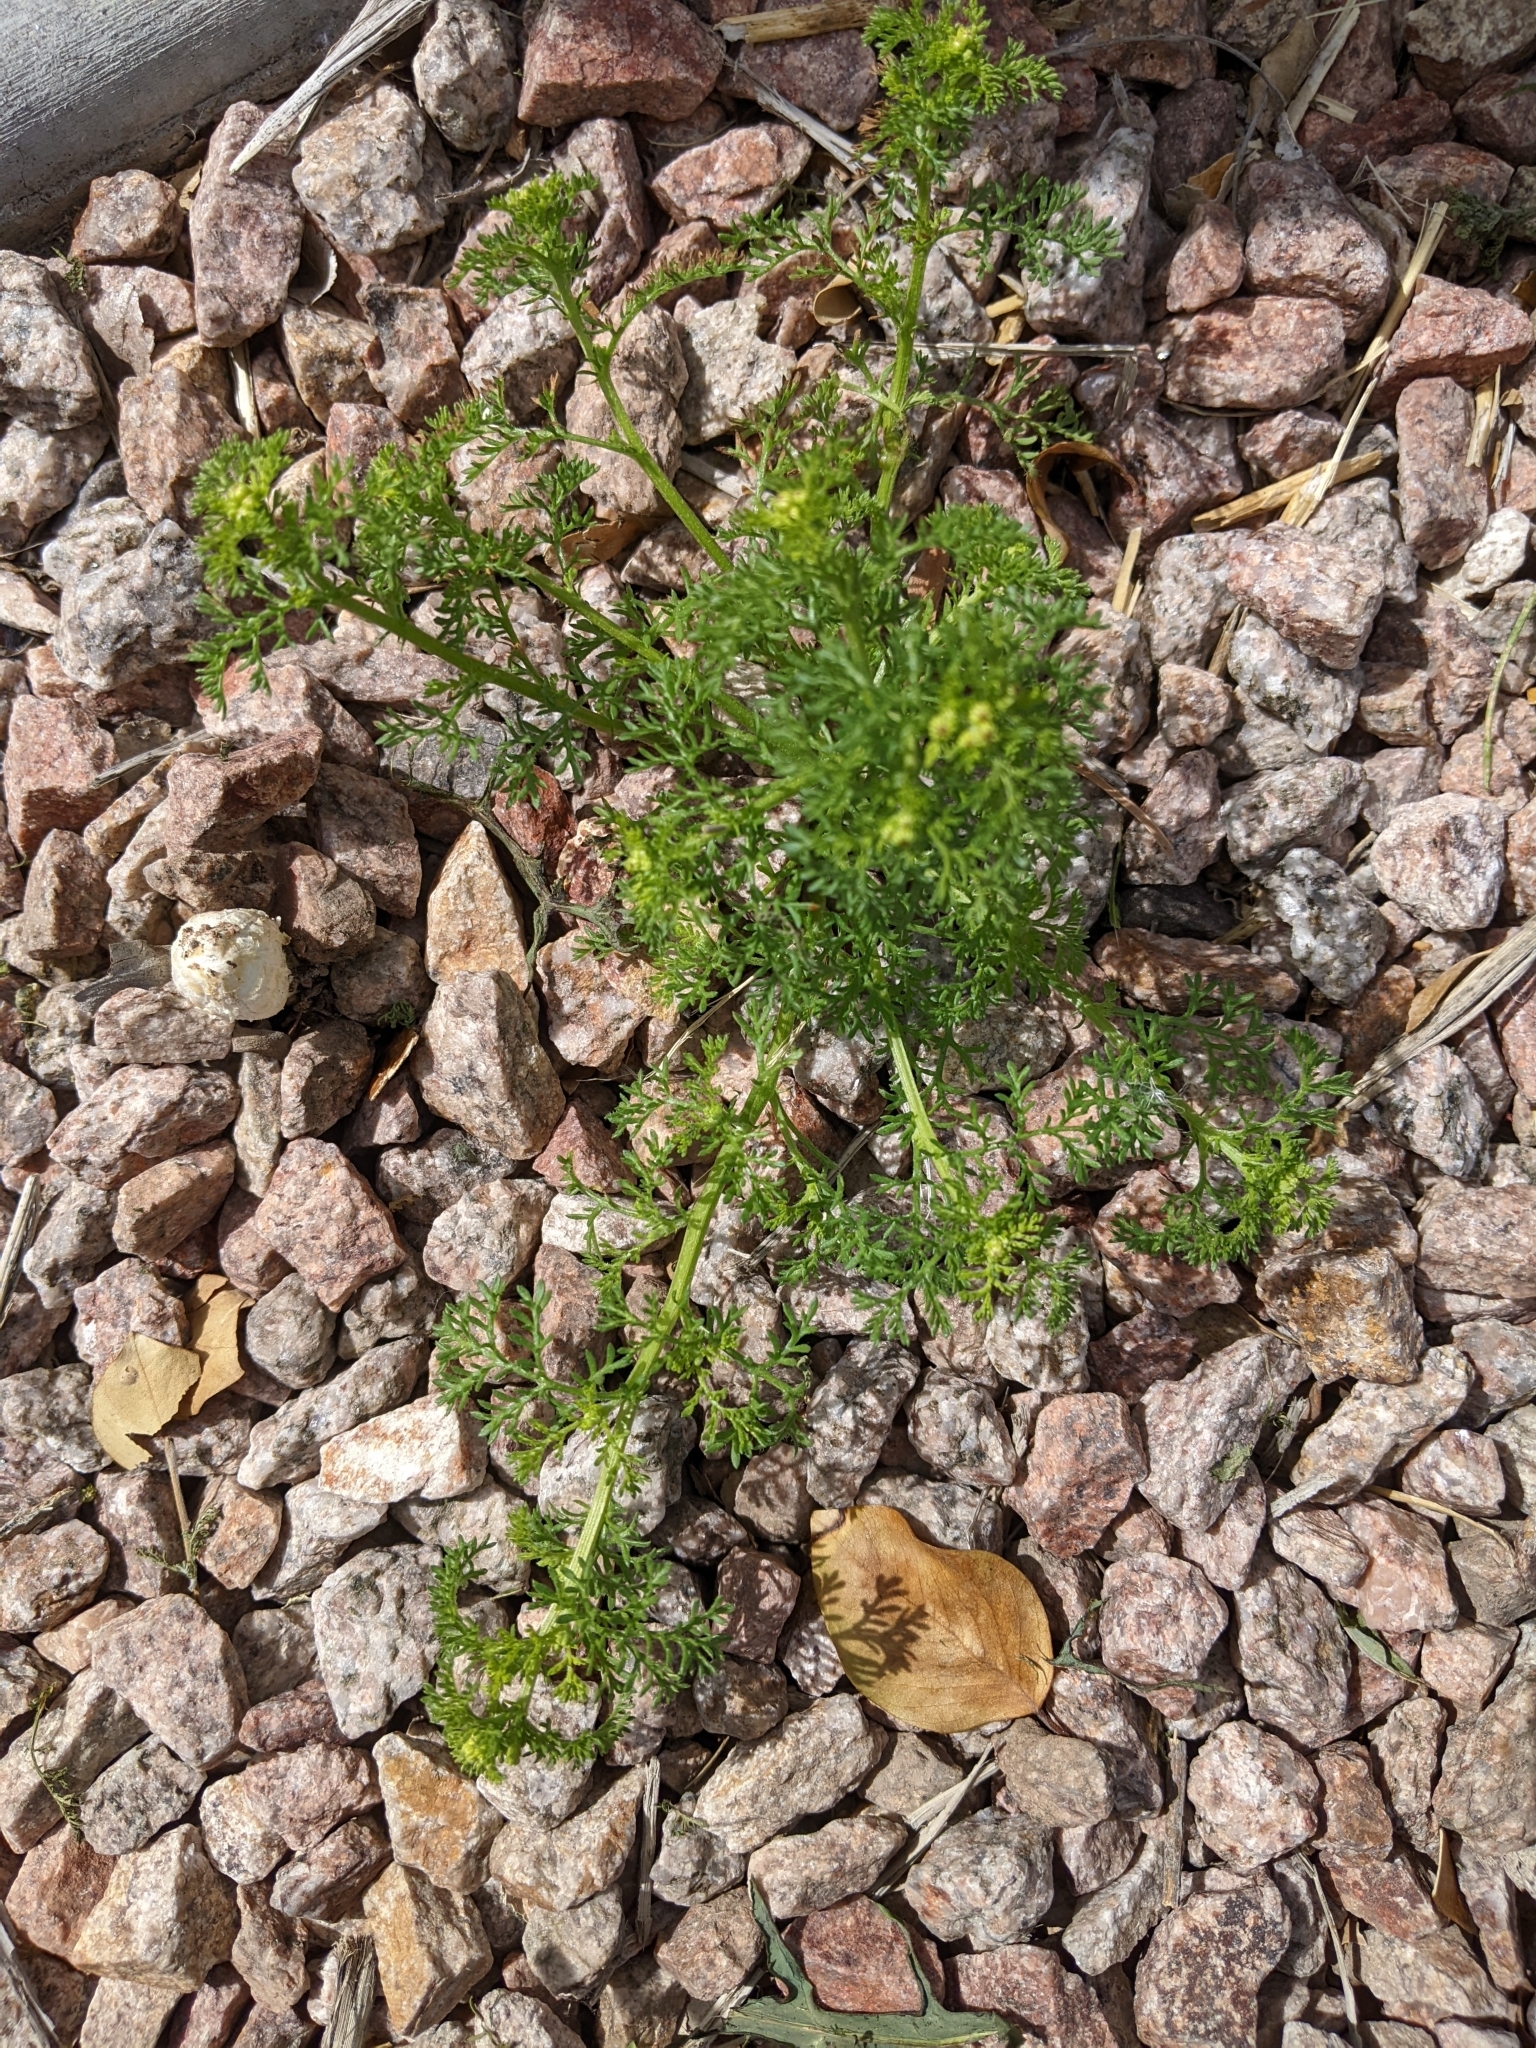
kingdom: Plantae
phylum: Tracheophyta
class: Magnoliopsida
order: Asterales
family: Asteraceae
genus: Oncosiphon
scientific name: Oncosiphon pilulifer
